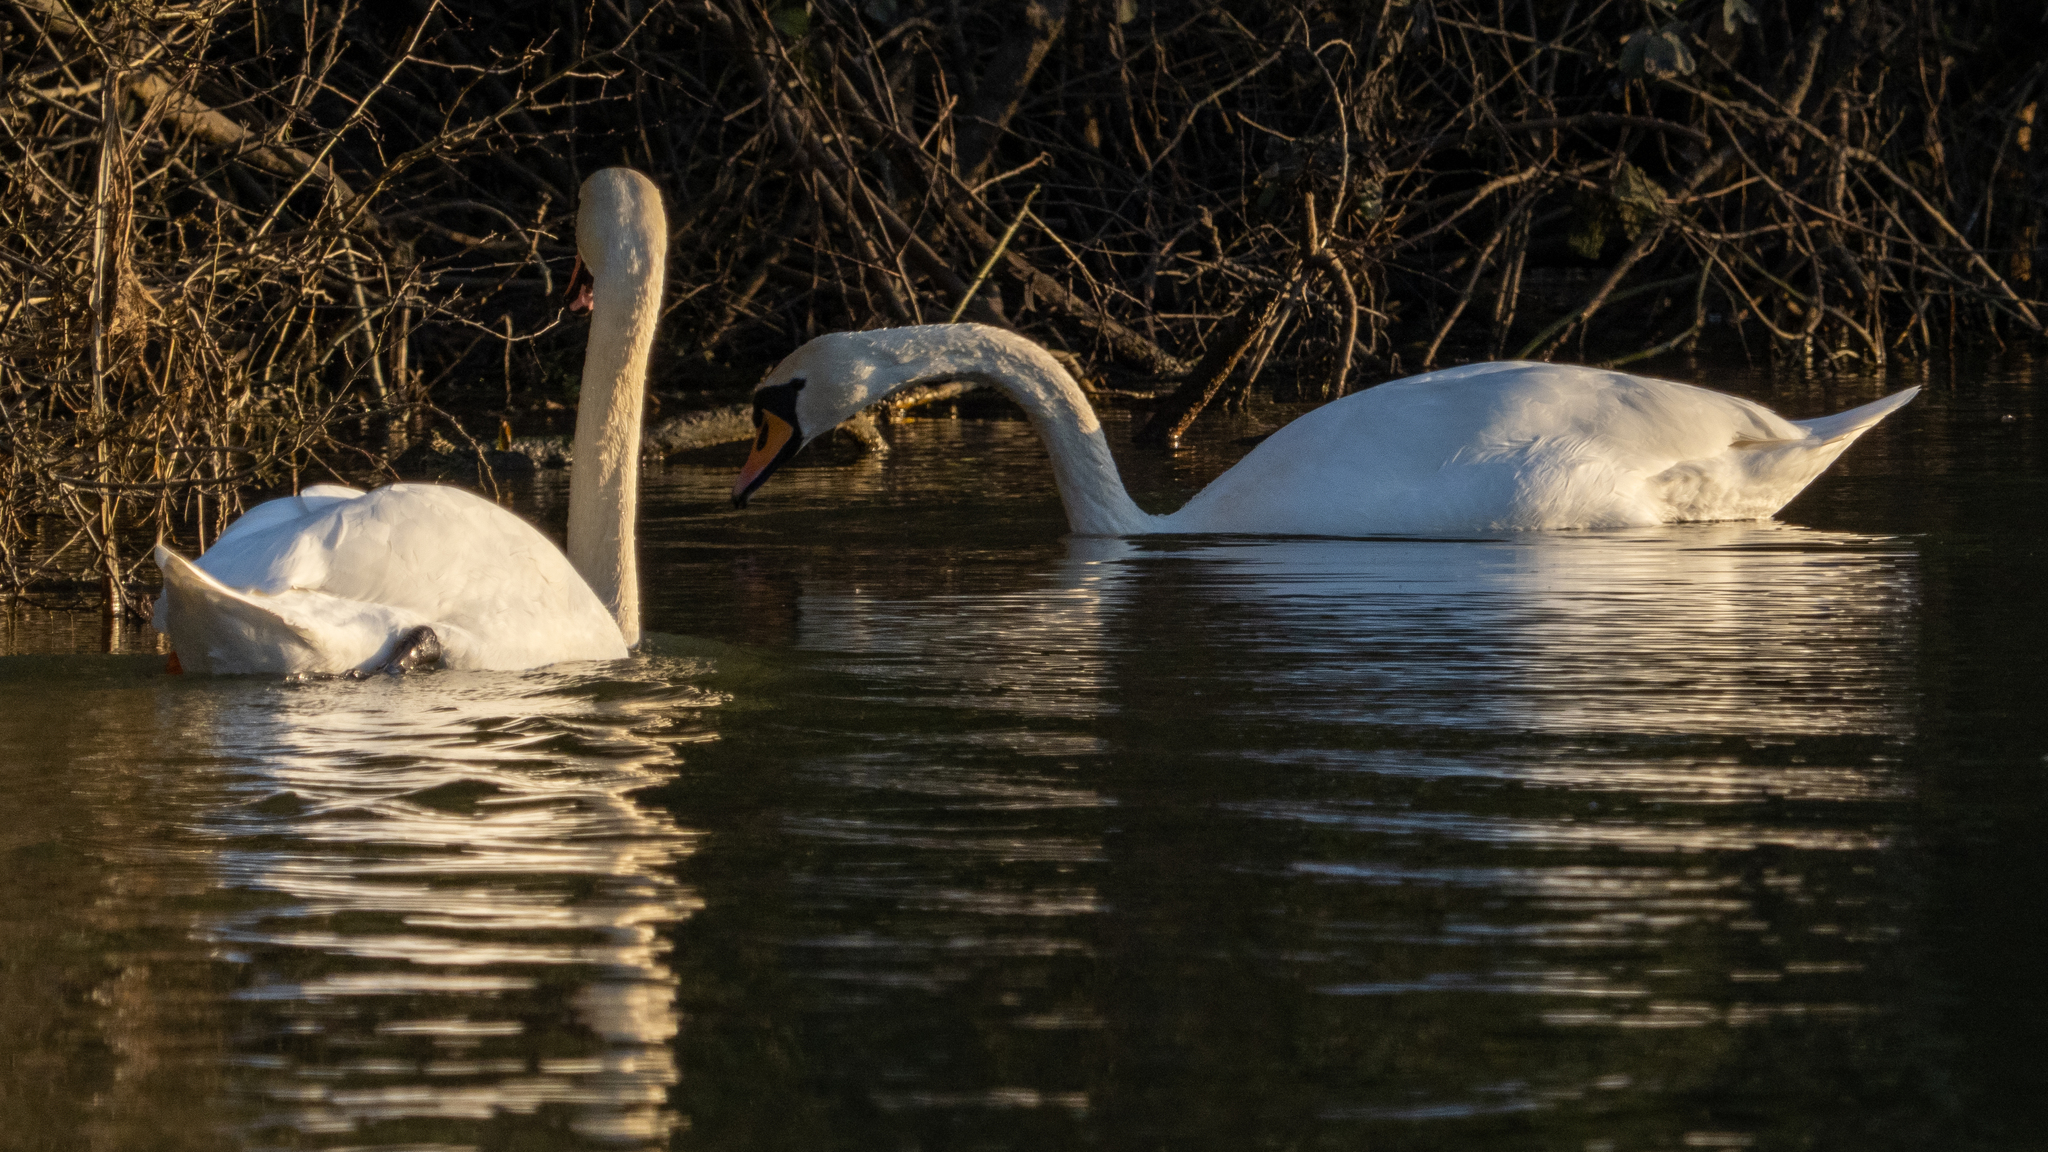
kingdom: Animalia
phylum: Chordata
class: Aves
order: Anseriformes
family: Anatidae
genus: Cygnus
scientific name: Cygnus olor
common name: Mute swan
